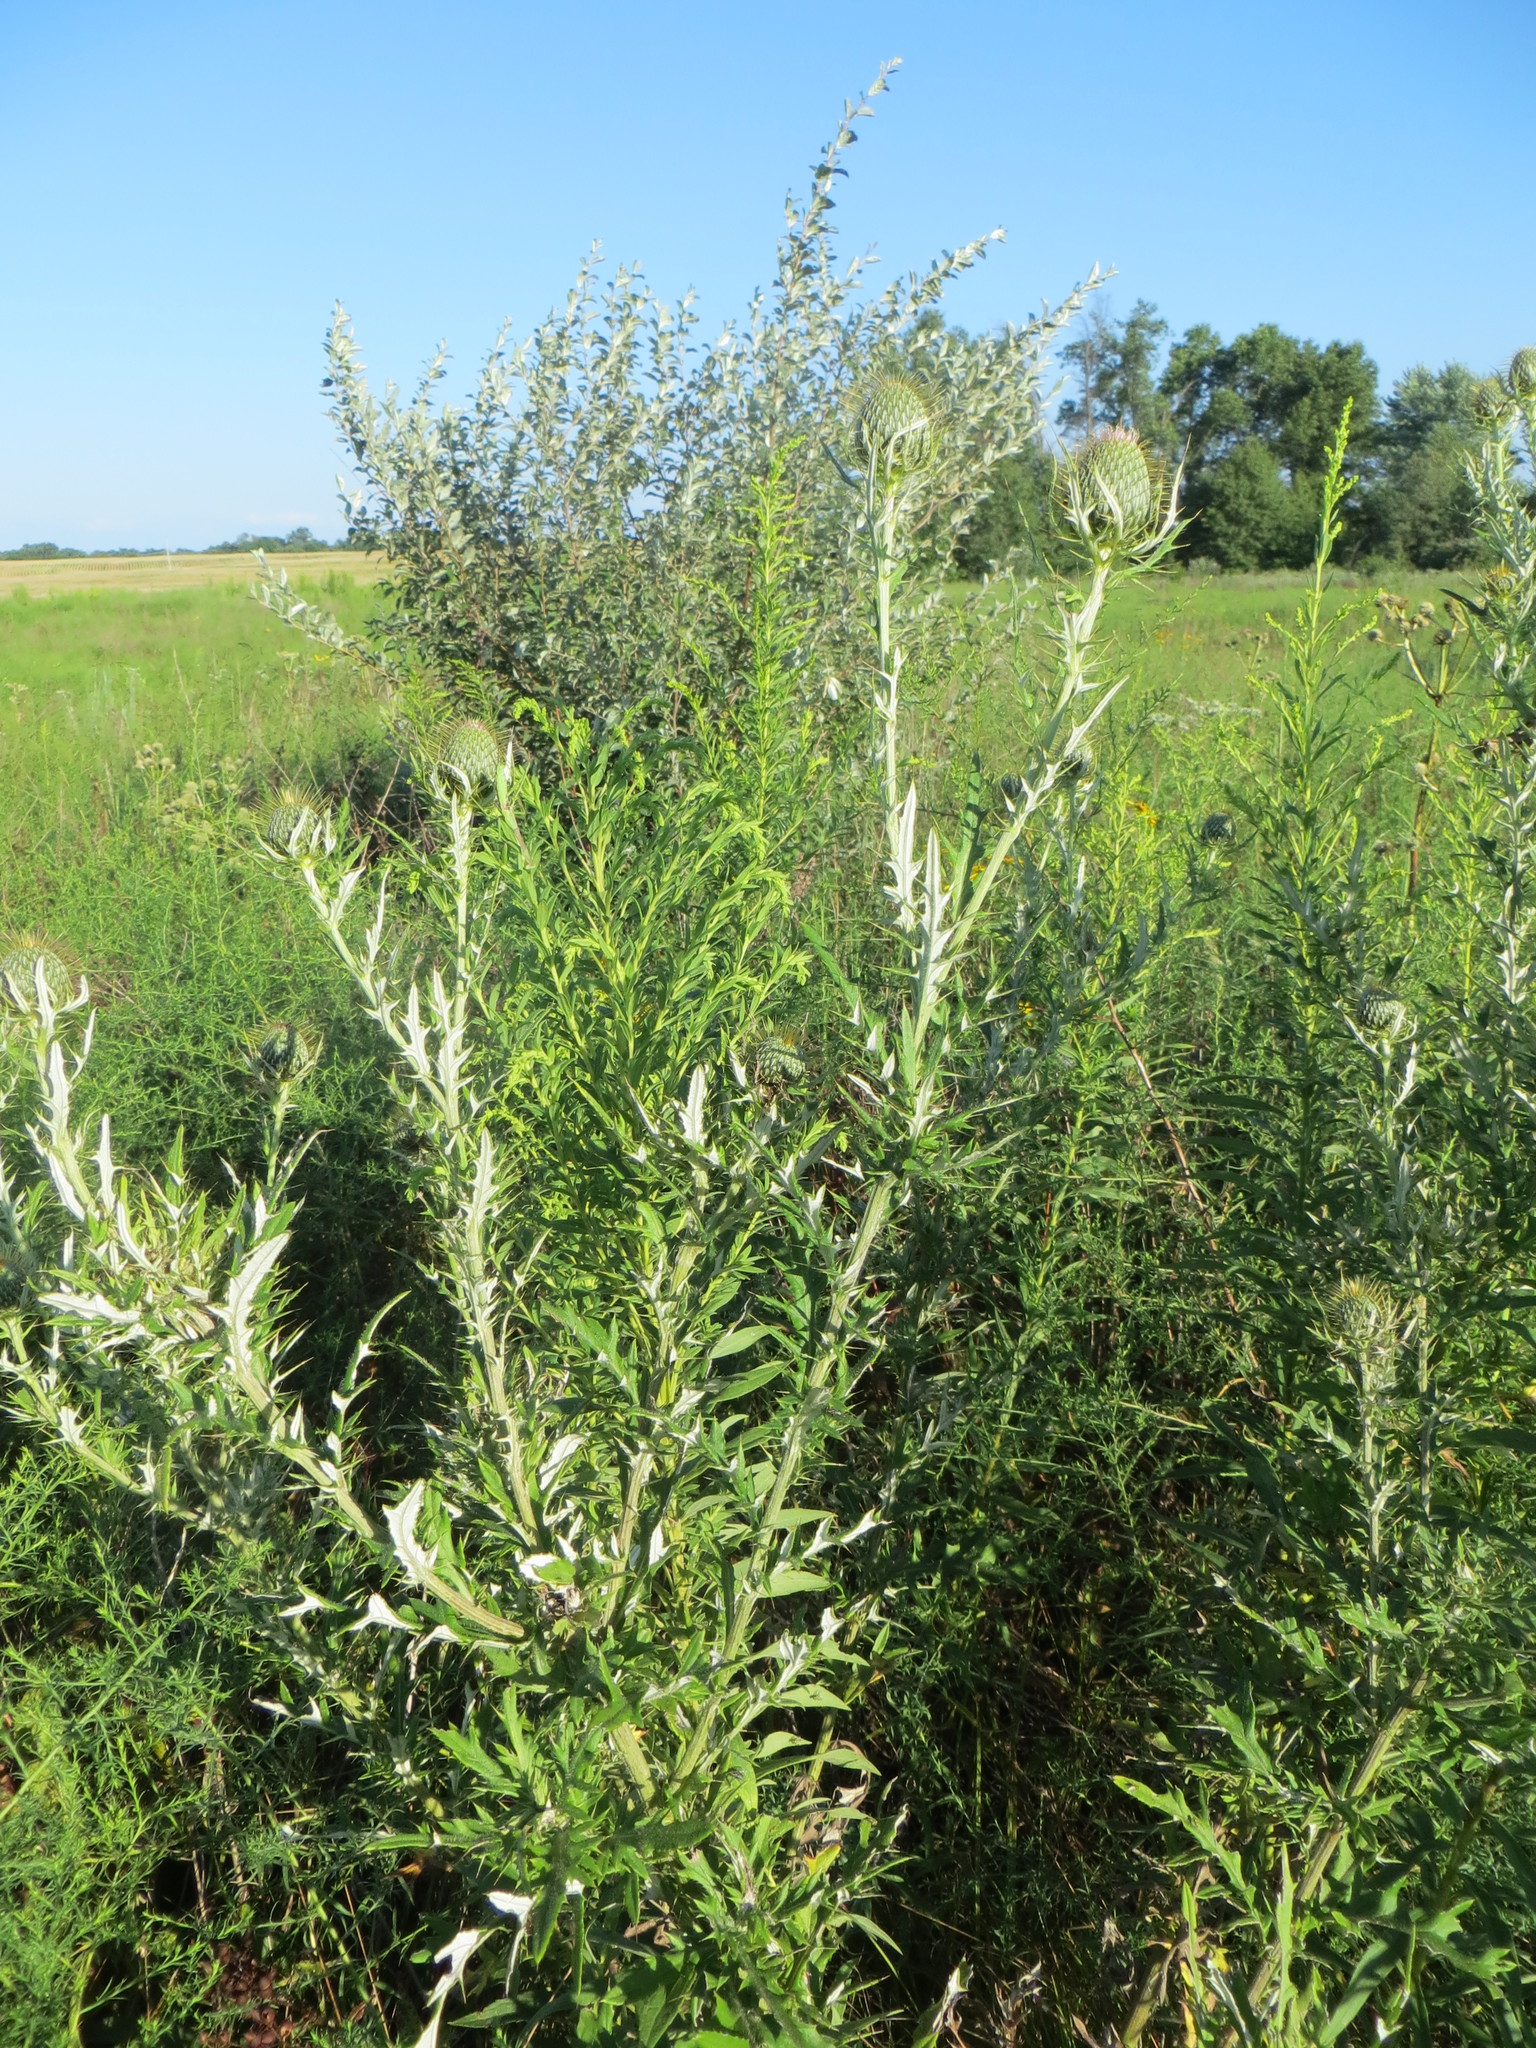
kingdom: Plantae
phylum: Tracheophyta
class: Magnoliopsida
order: Asterales
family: Asteraceae
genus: Cirsium
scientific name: Cirsium discolor
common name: Field thistle
